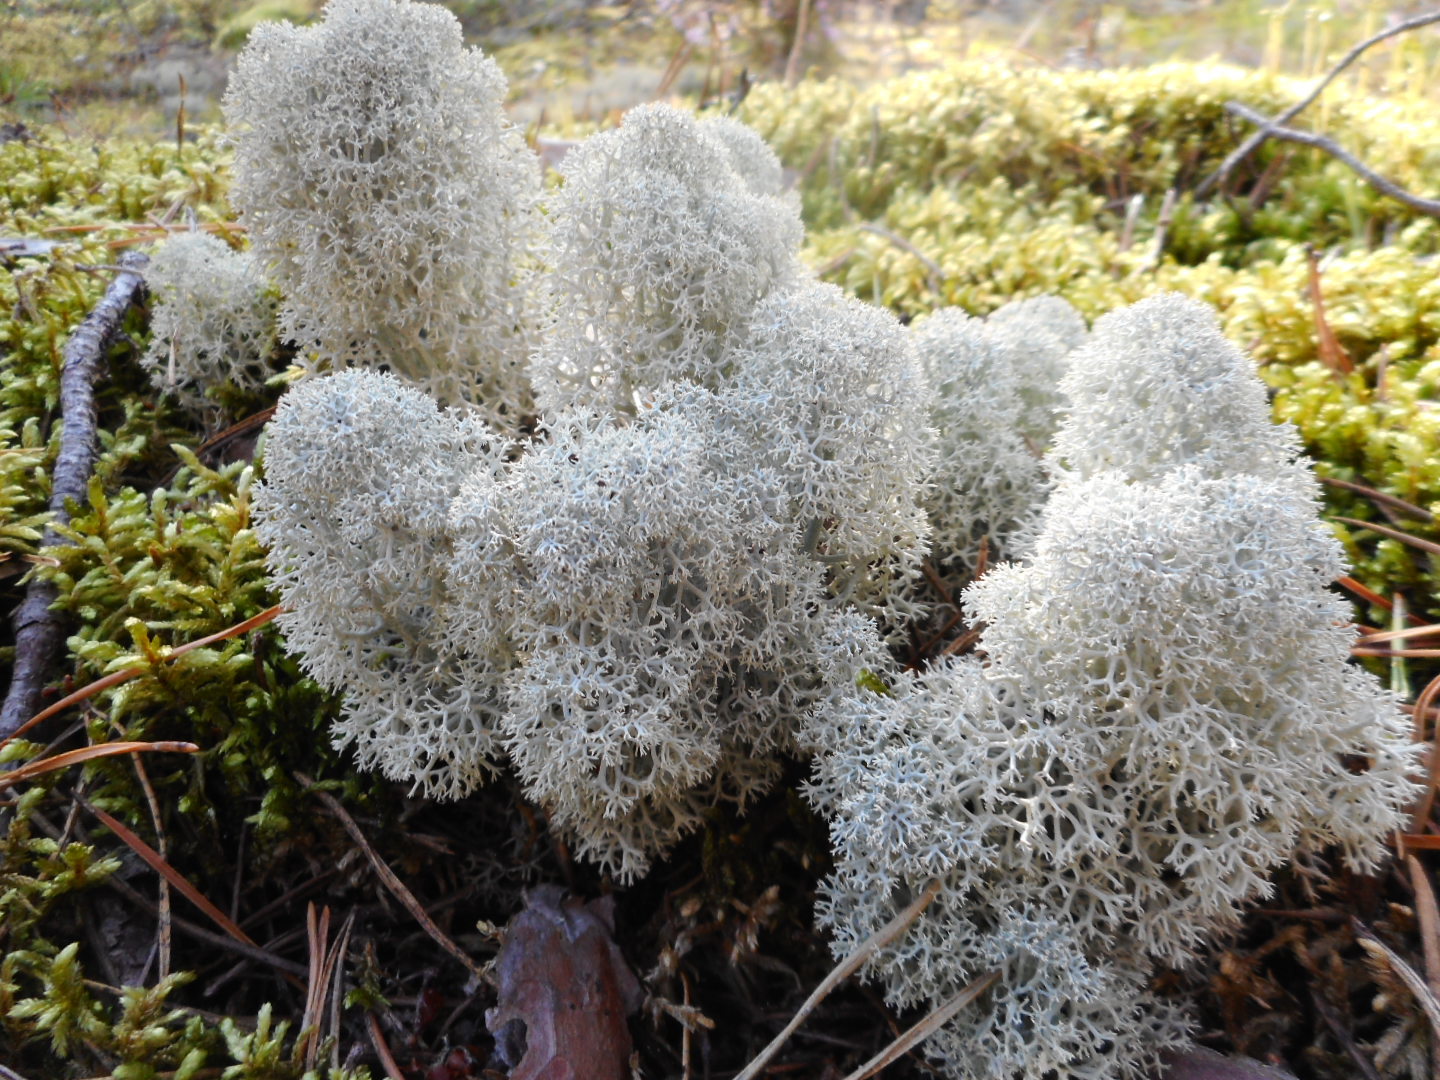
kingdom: Fungi
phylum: Ascomycota
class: Lecanoromycetes
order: Lecanorales
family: Cladoniaceae
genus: Cladonia
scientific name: Cladonia stellaris
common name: Star-tipped reindeer lichen
